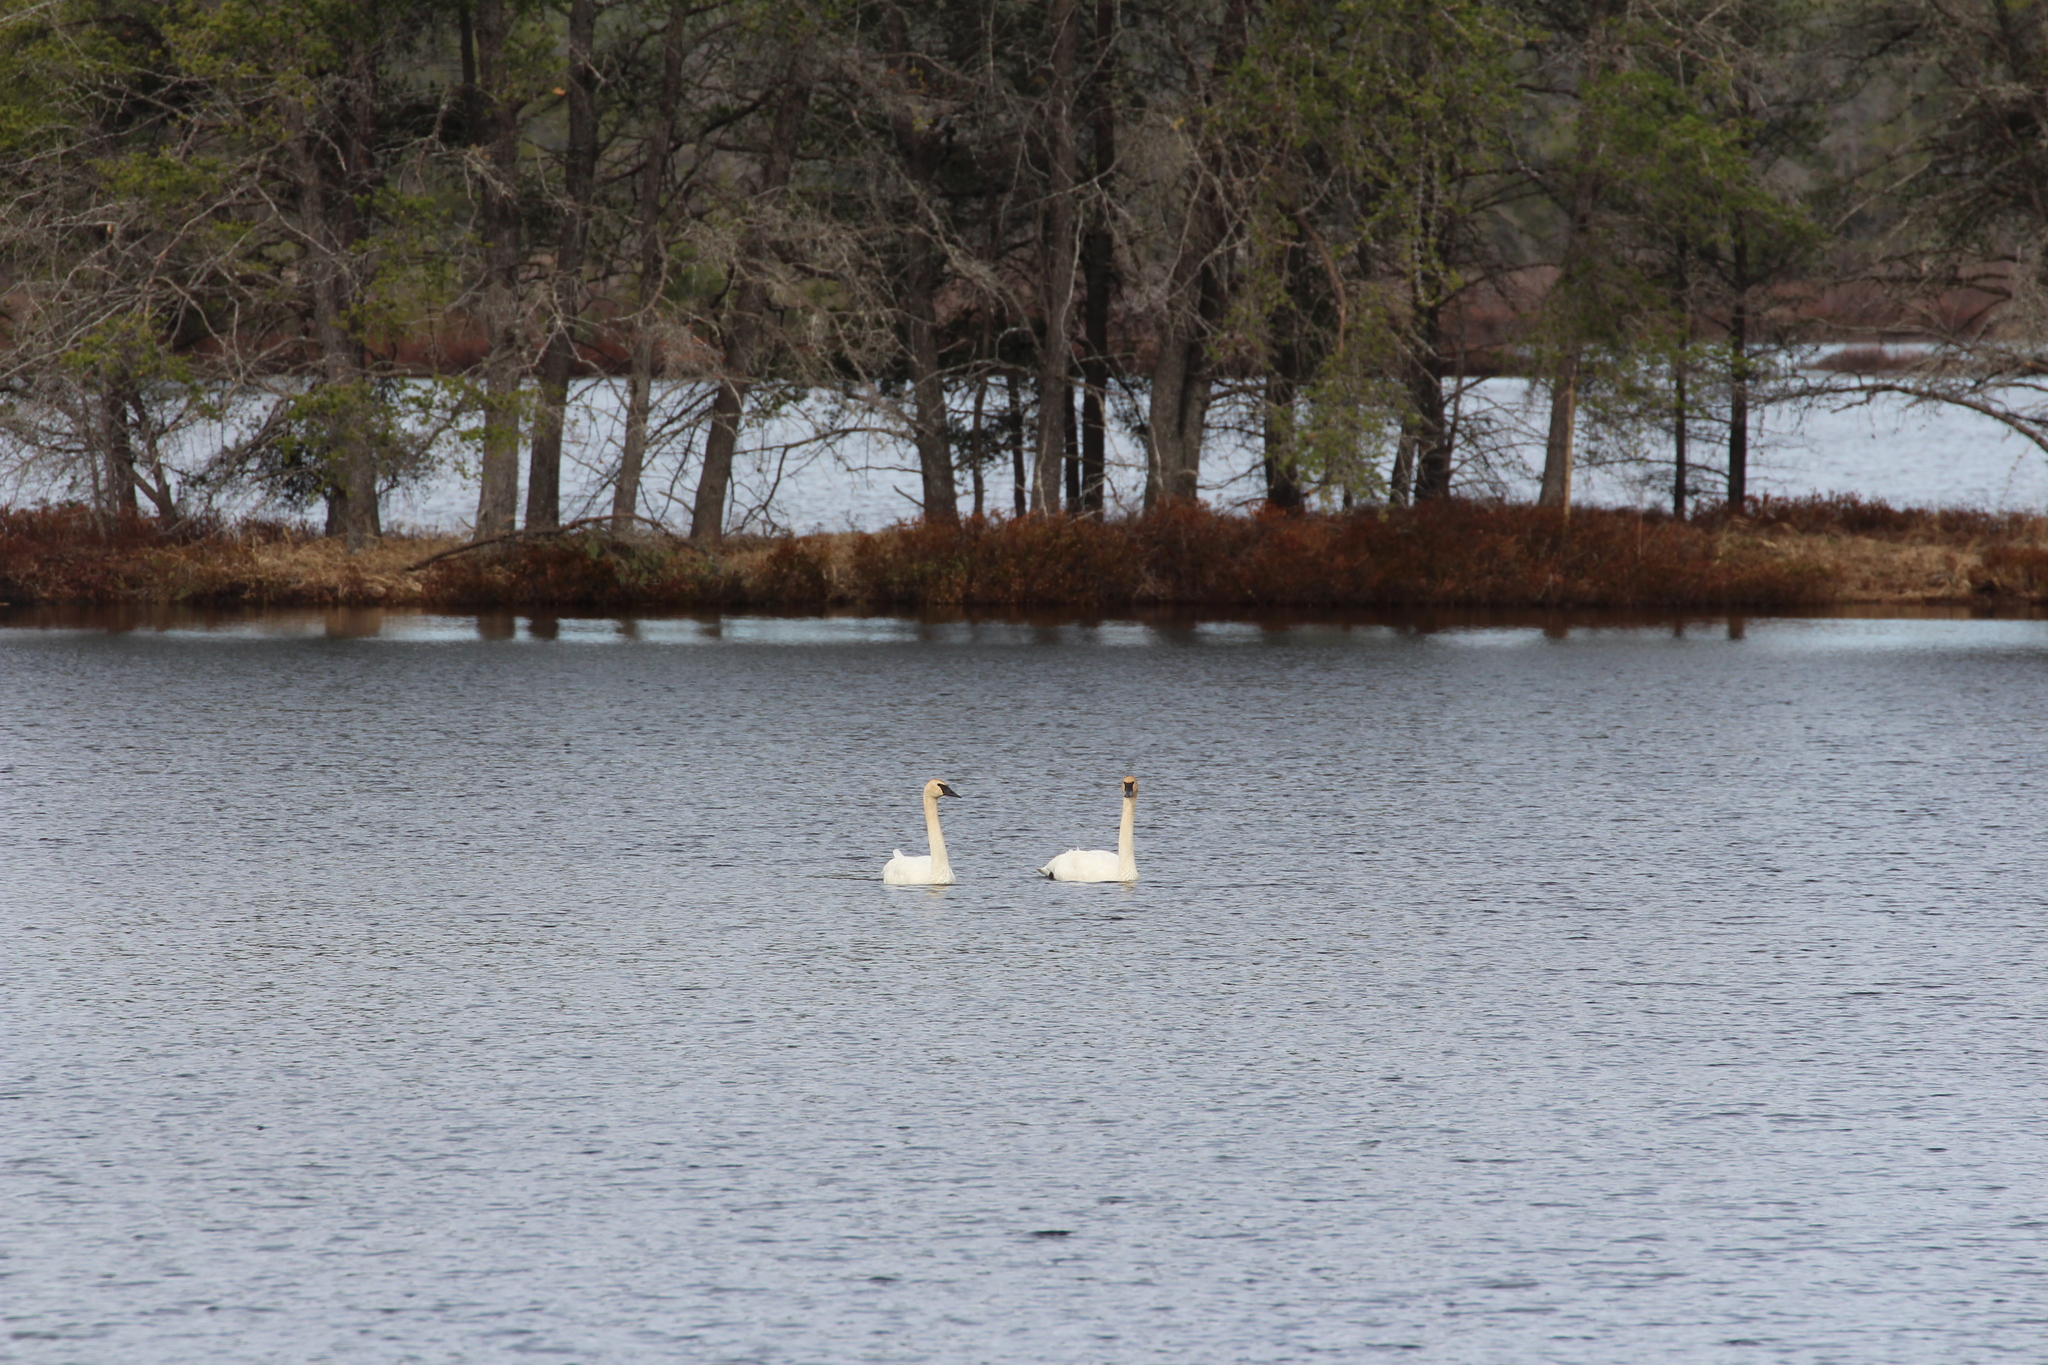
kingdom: Animalia
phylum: Chordata
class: Aves
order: Anseriformes
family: Anatidae
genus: Cygnus
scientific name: Cygnus buccinator
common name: Trumpeter swan
